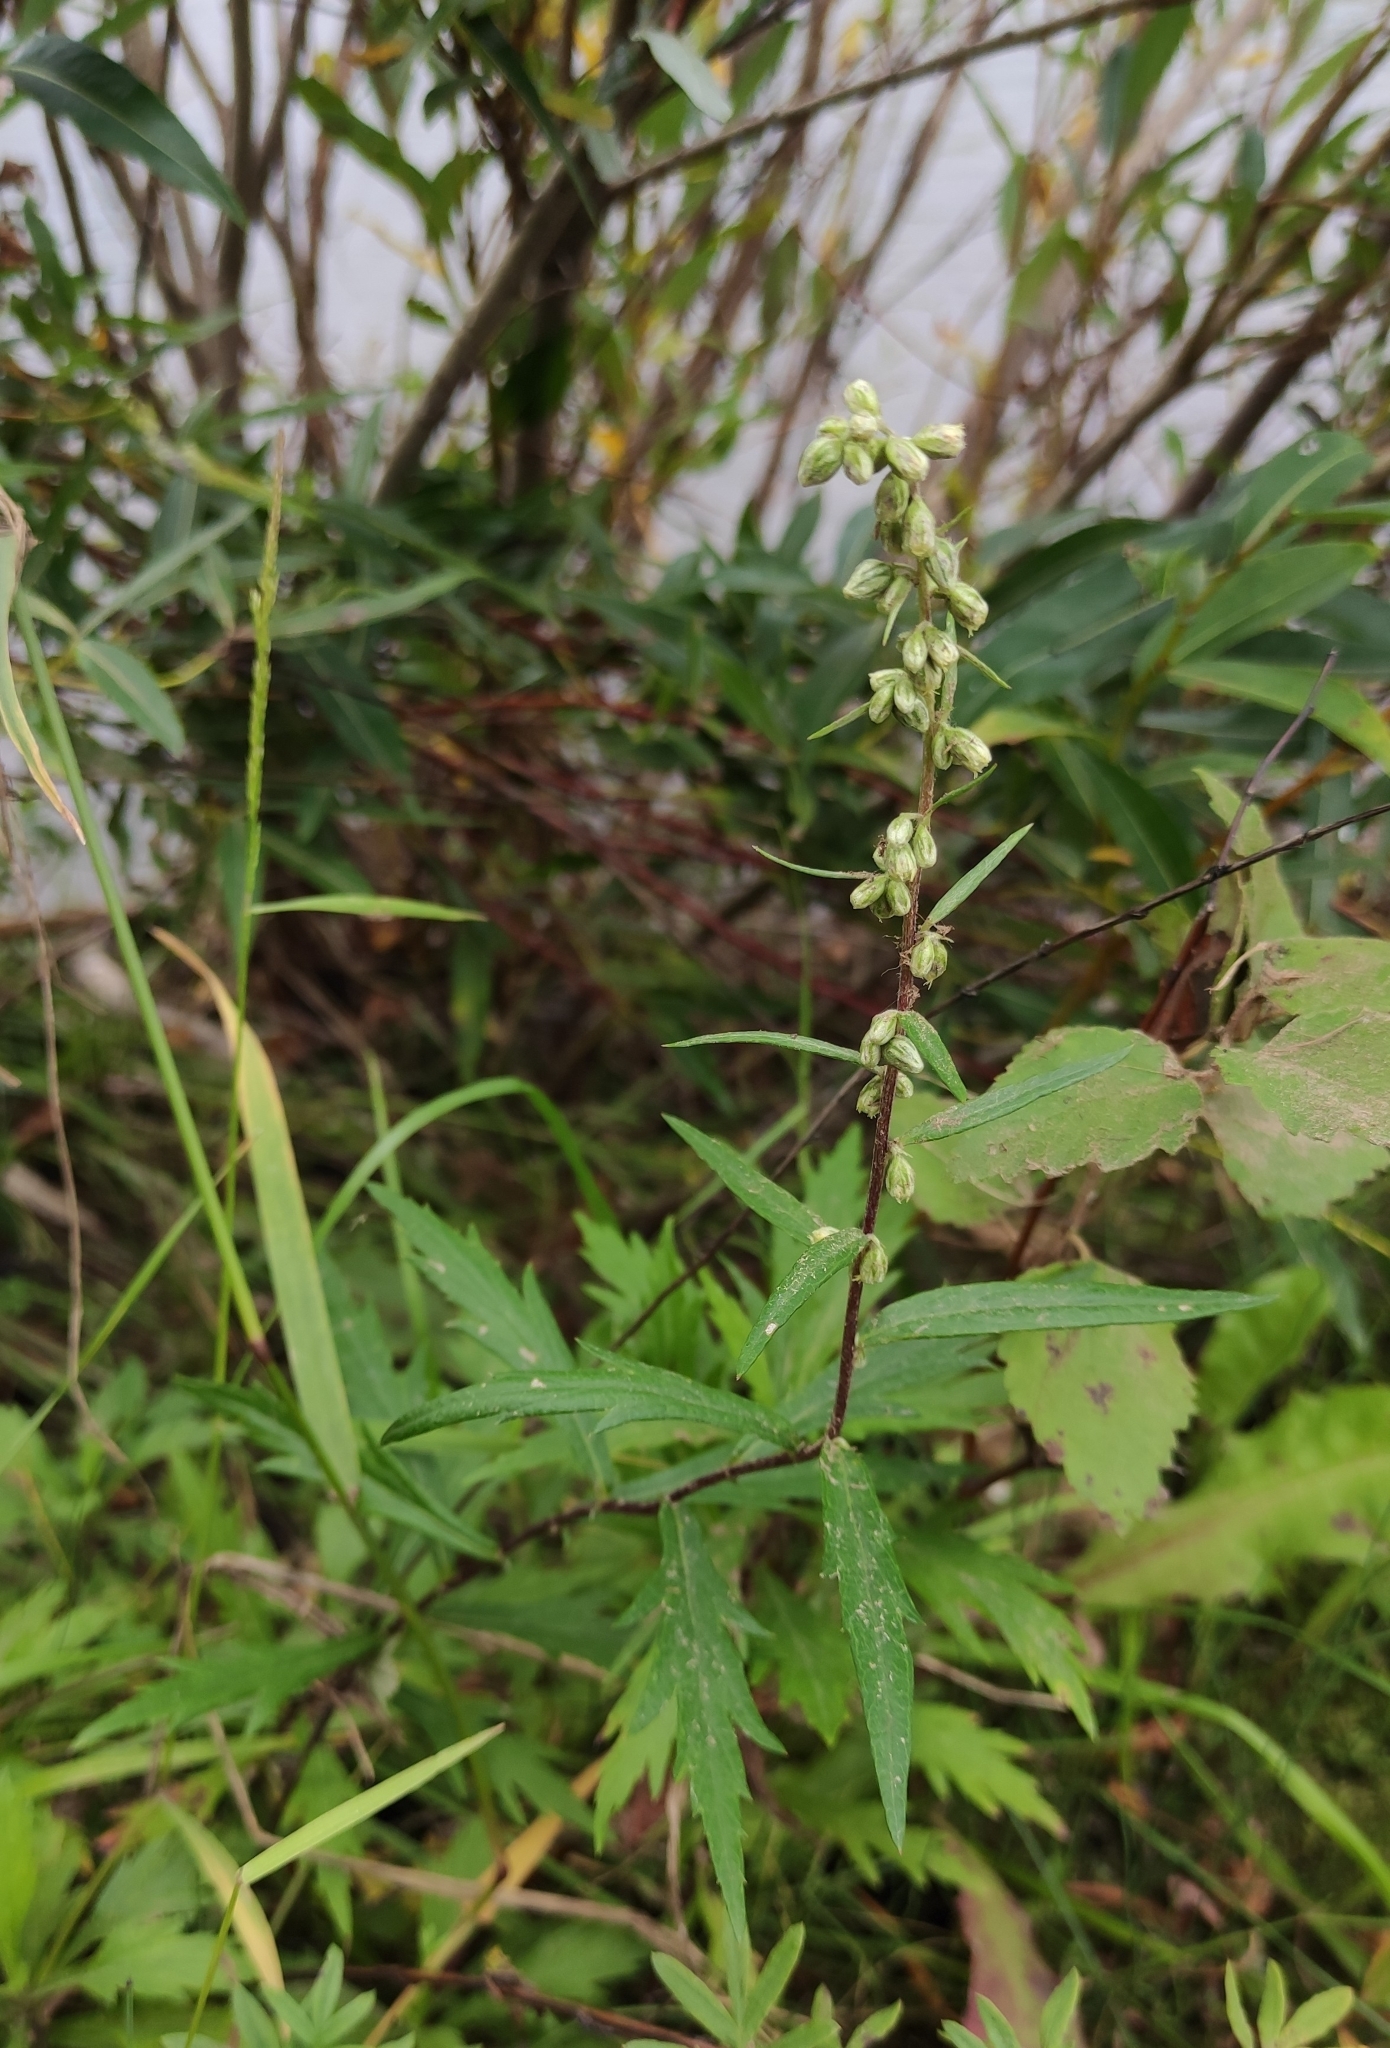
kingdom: Plantae
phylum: Tracheophyta
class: Magnoliopsida
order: Asterales
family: Asteraceae
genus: Artemisia
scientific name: Artemisia integrifolia
